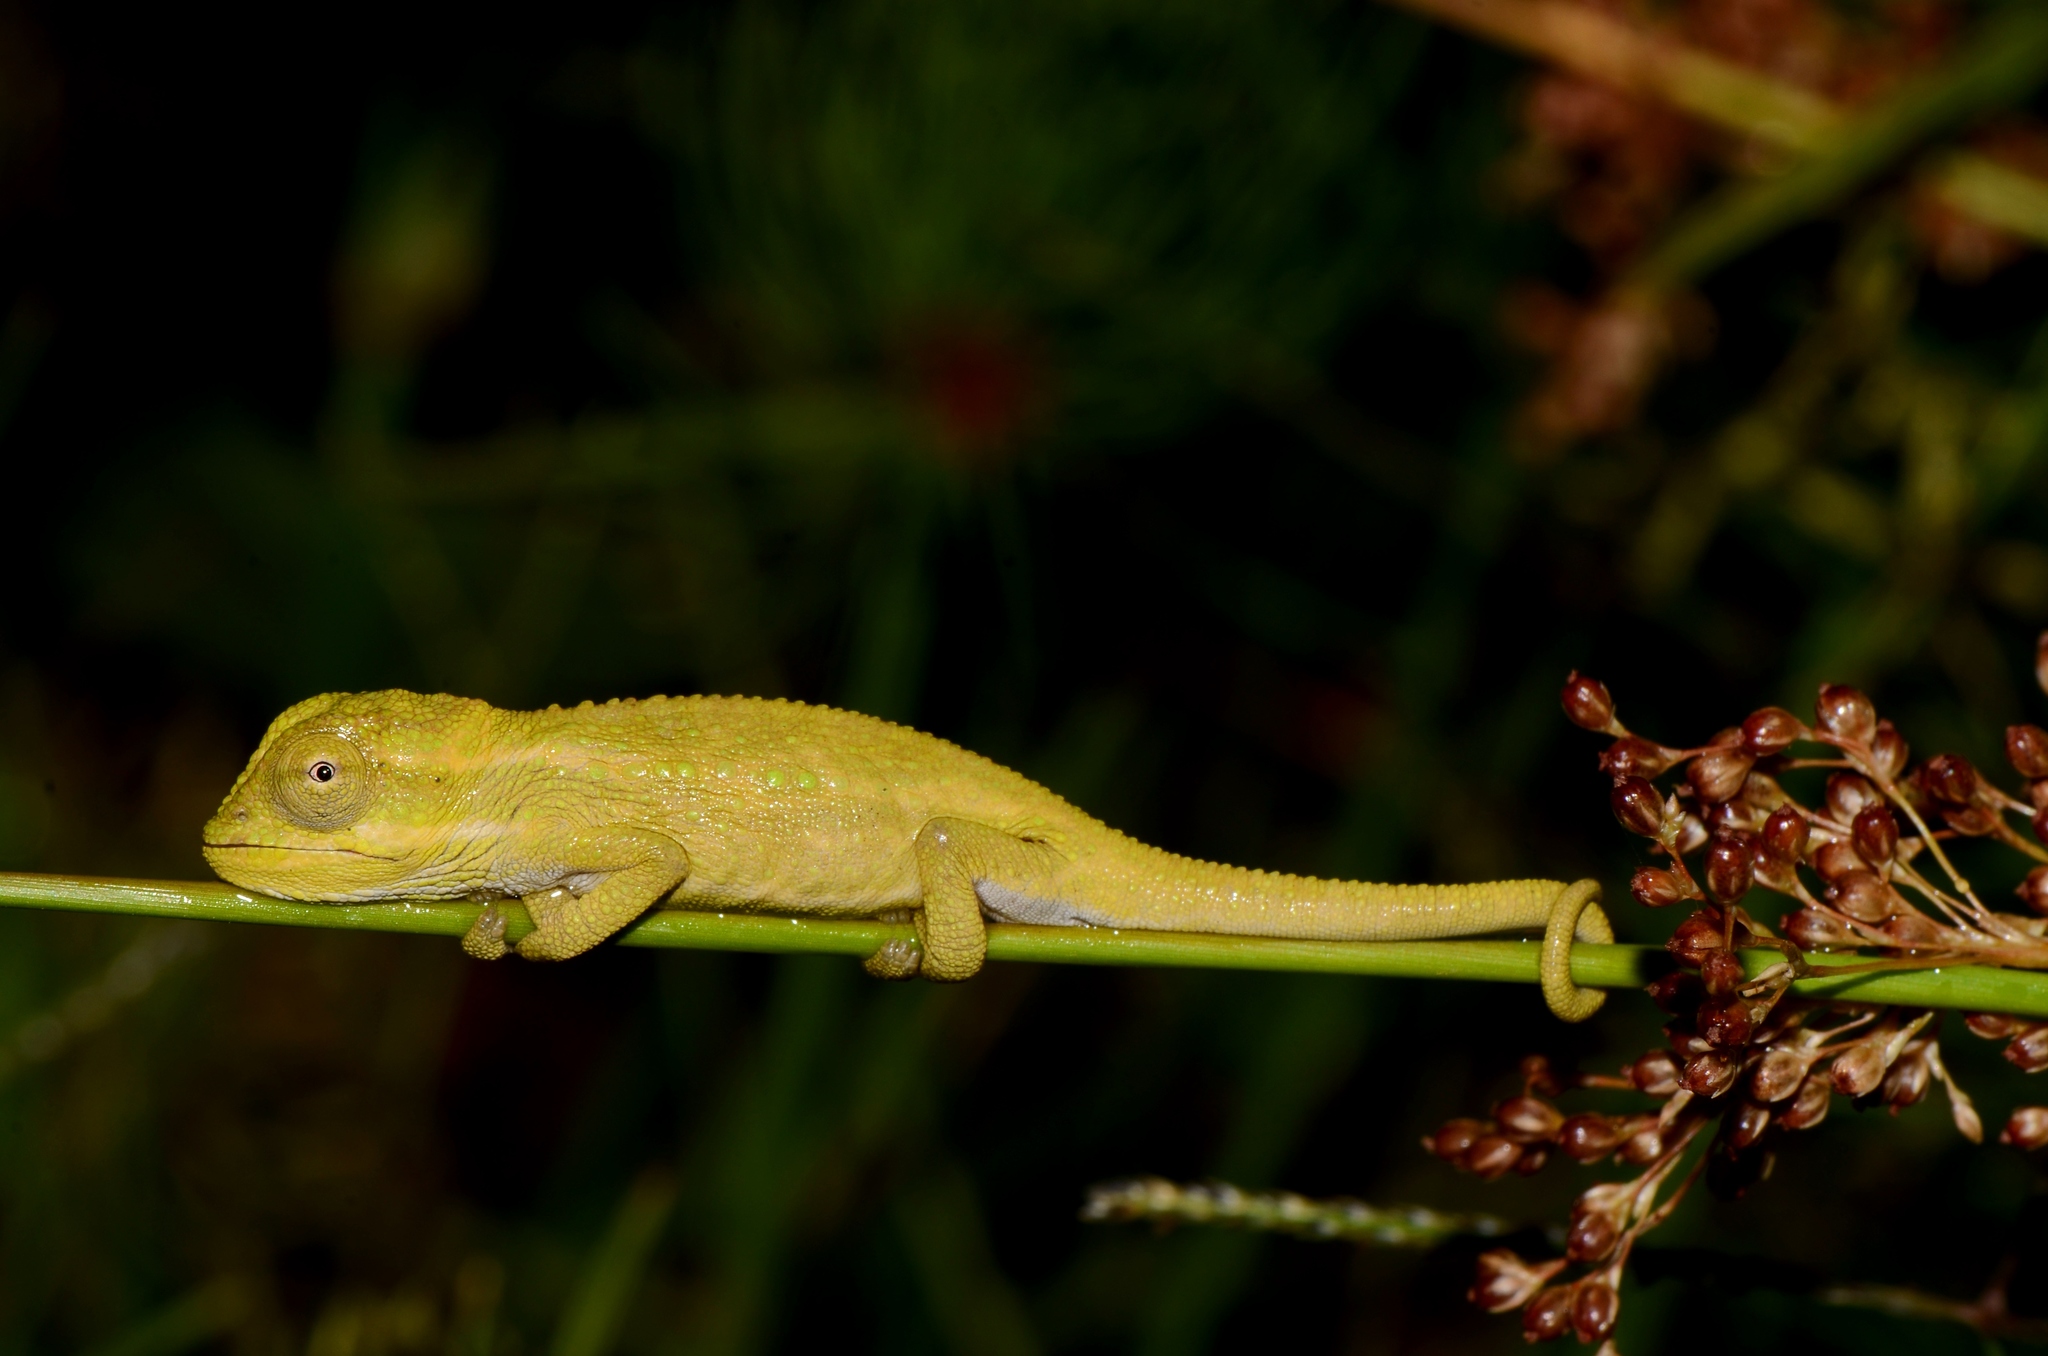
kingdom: Animalia
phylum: Chordata
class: Squamata
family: Chamaeleonidae
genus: Bradypodion
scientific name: Bradypodion pumilum
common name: Cape dwarf chameleon
